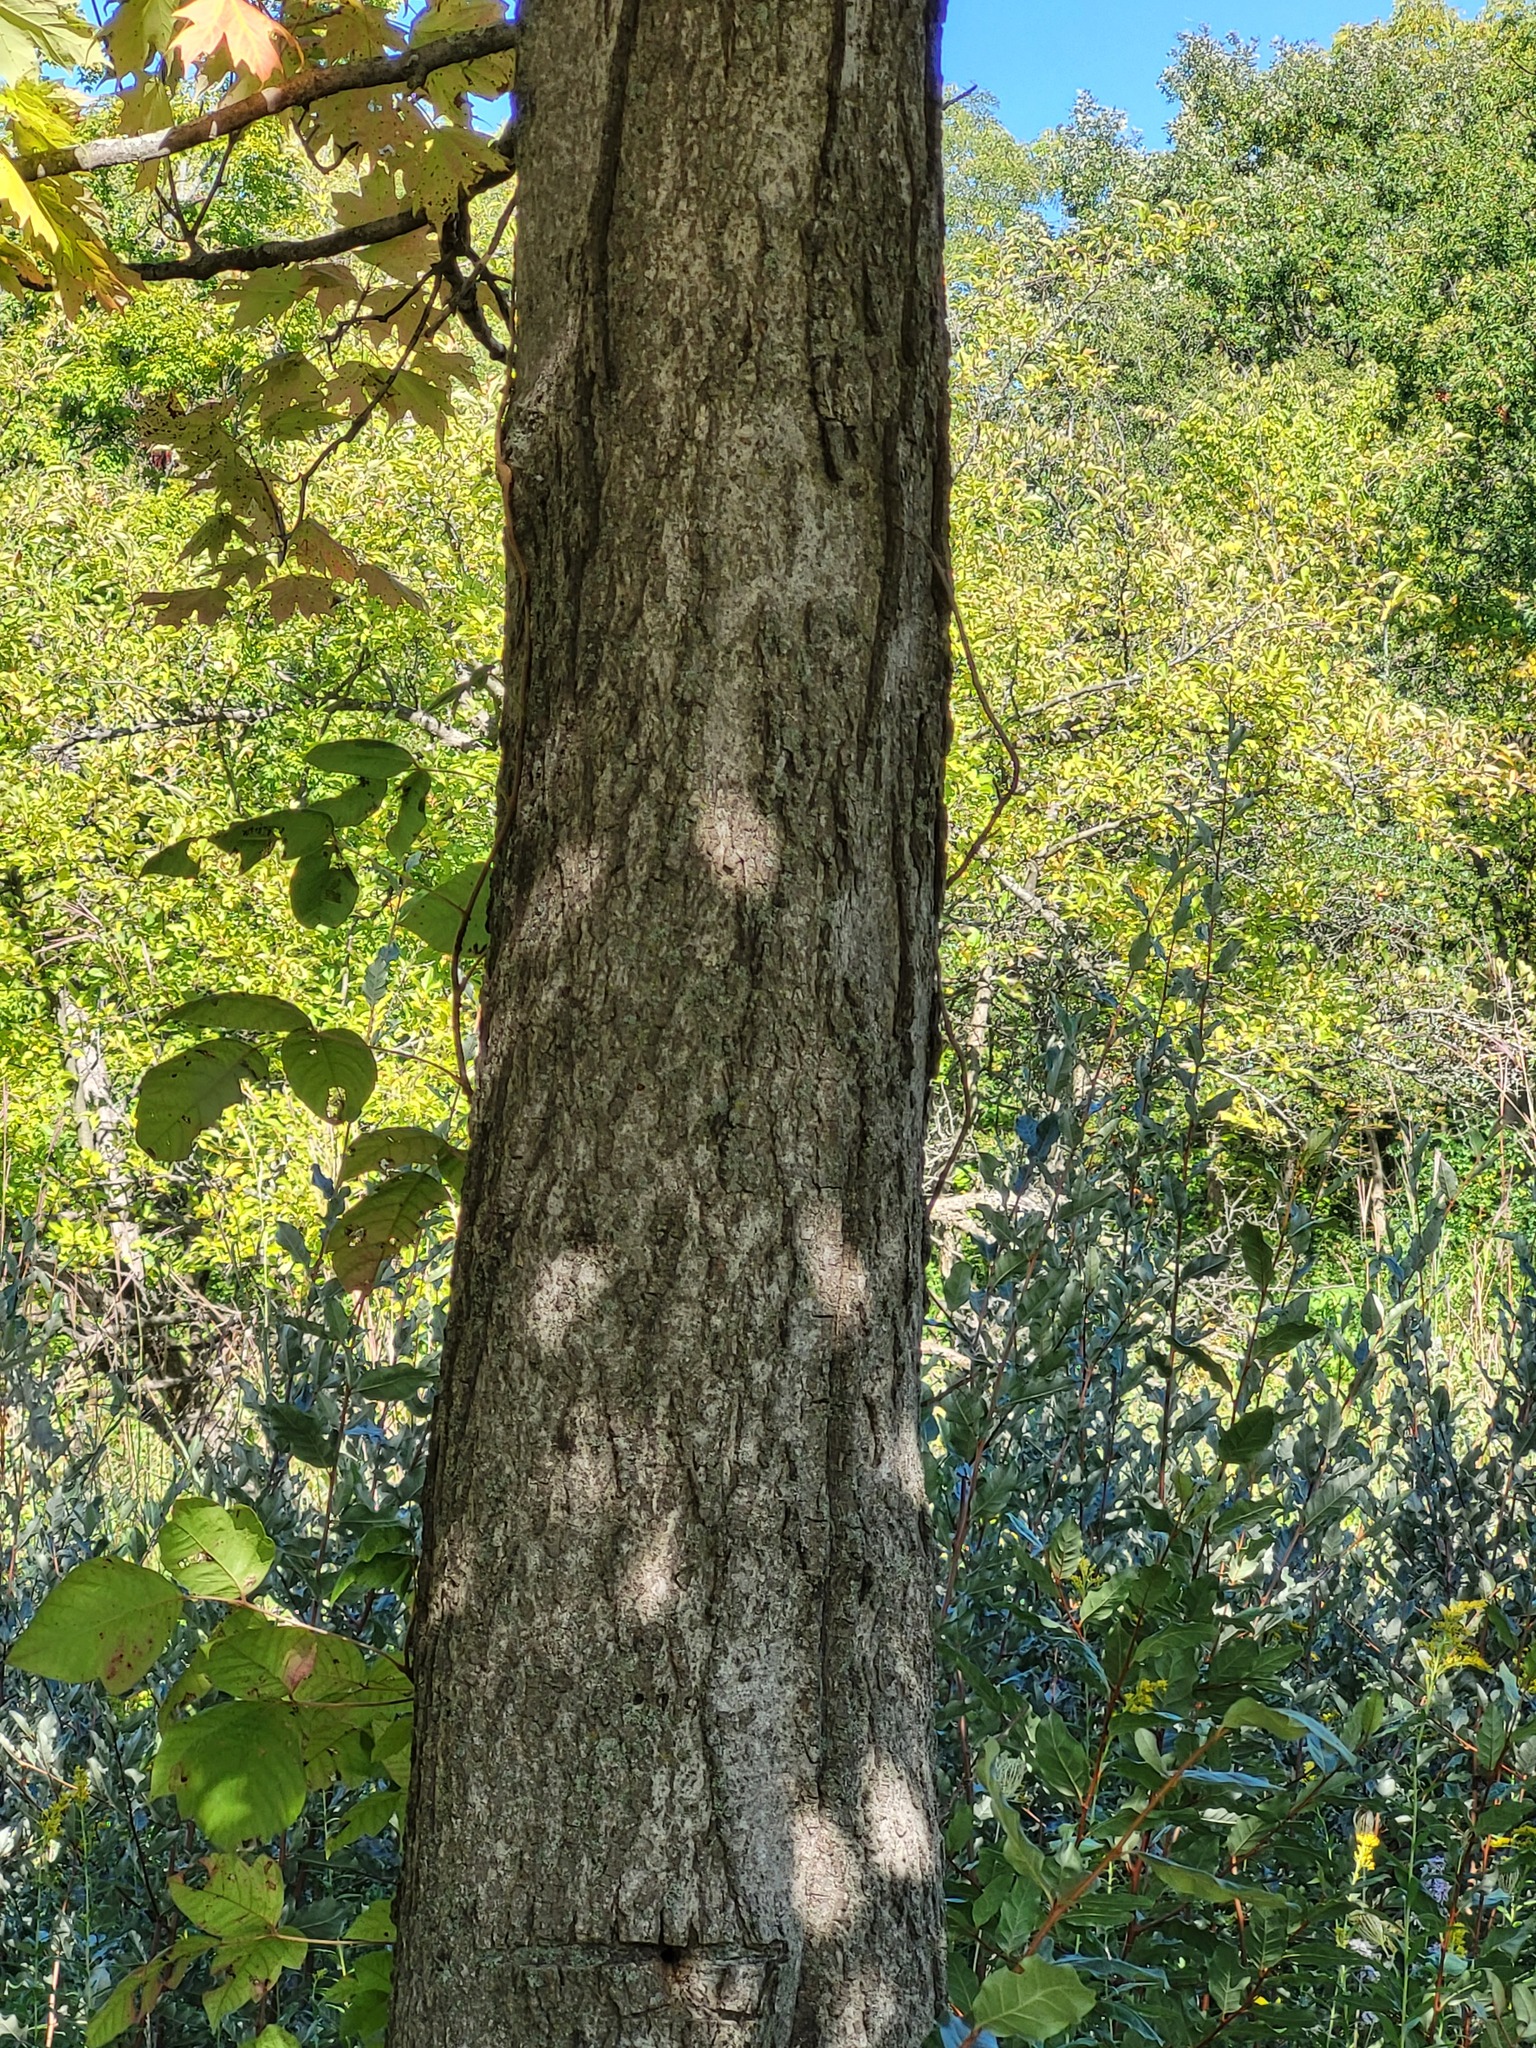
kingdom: Plantae
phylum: Tracheophyta
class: Magnoliopsida
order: Sapindales
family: Sapindaceae
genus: Acer
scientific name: Acer saccharum
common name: Sugar maple
